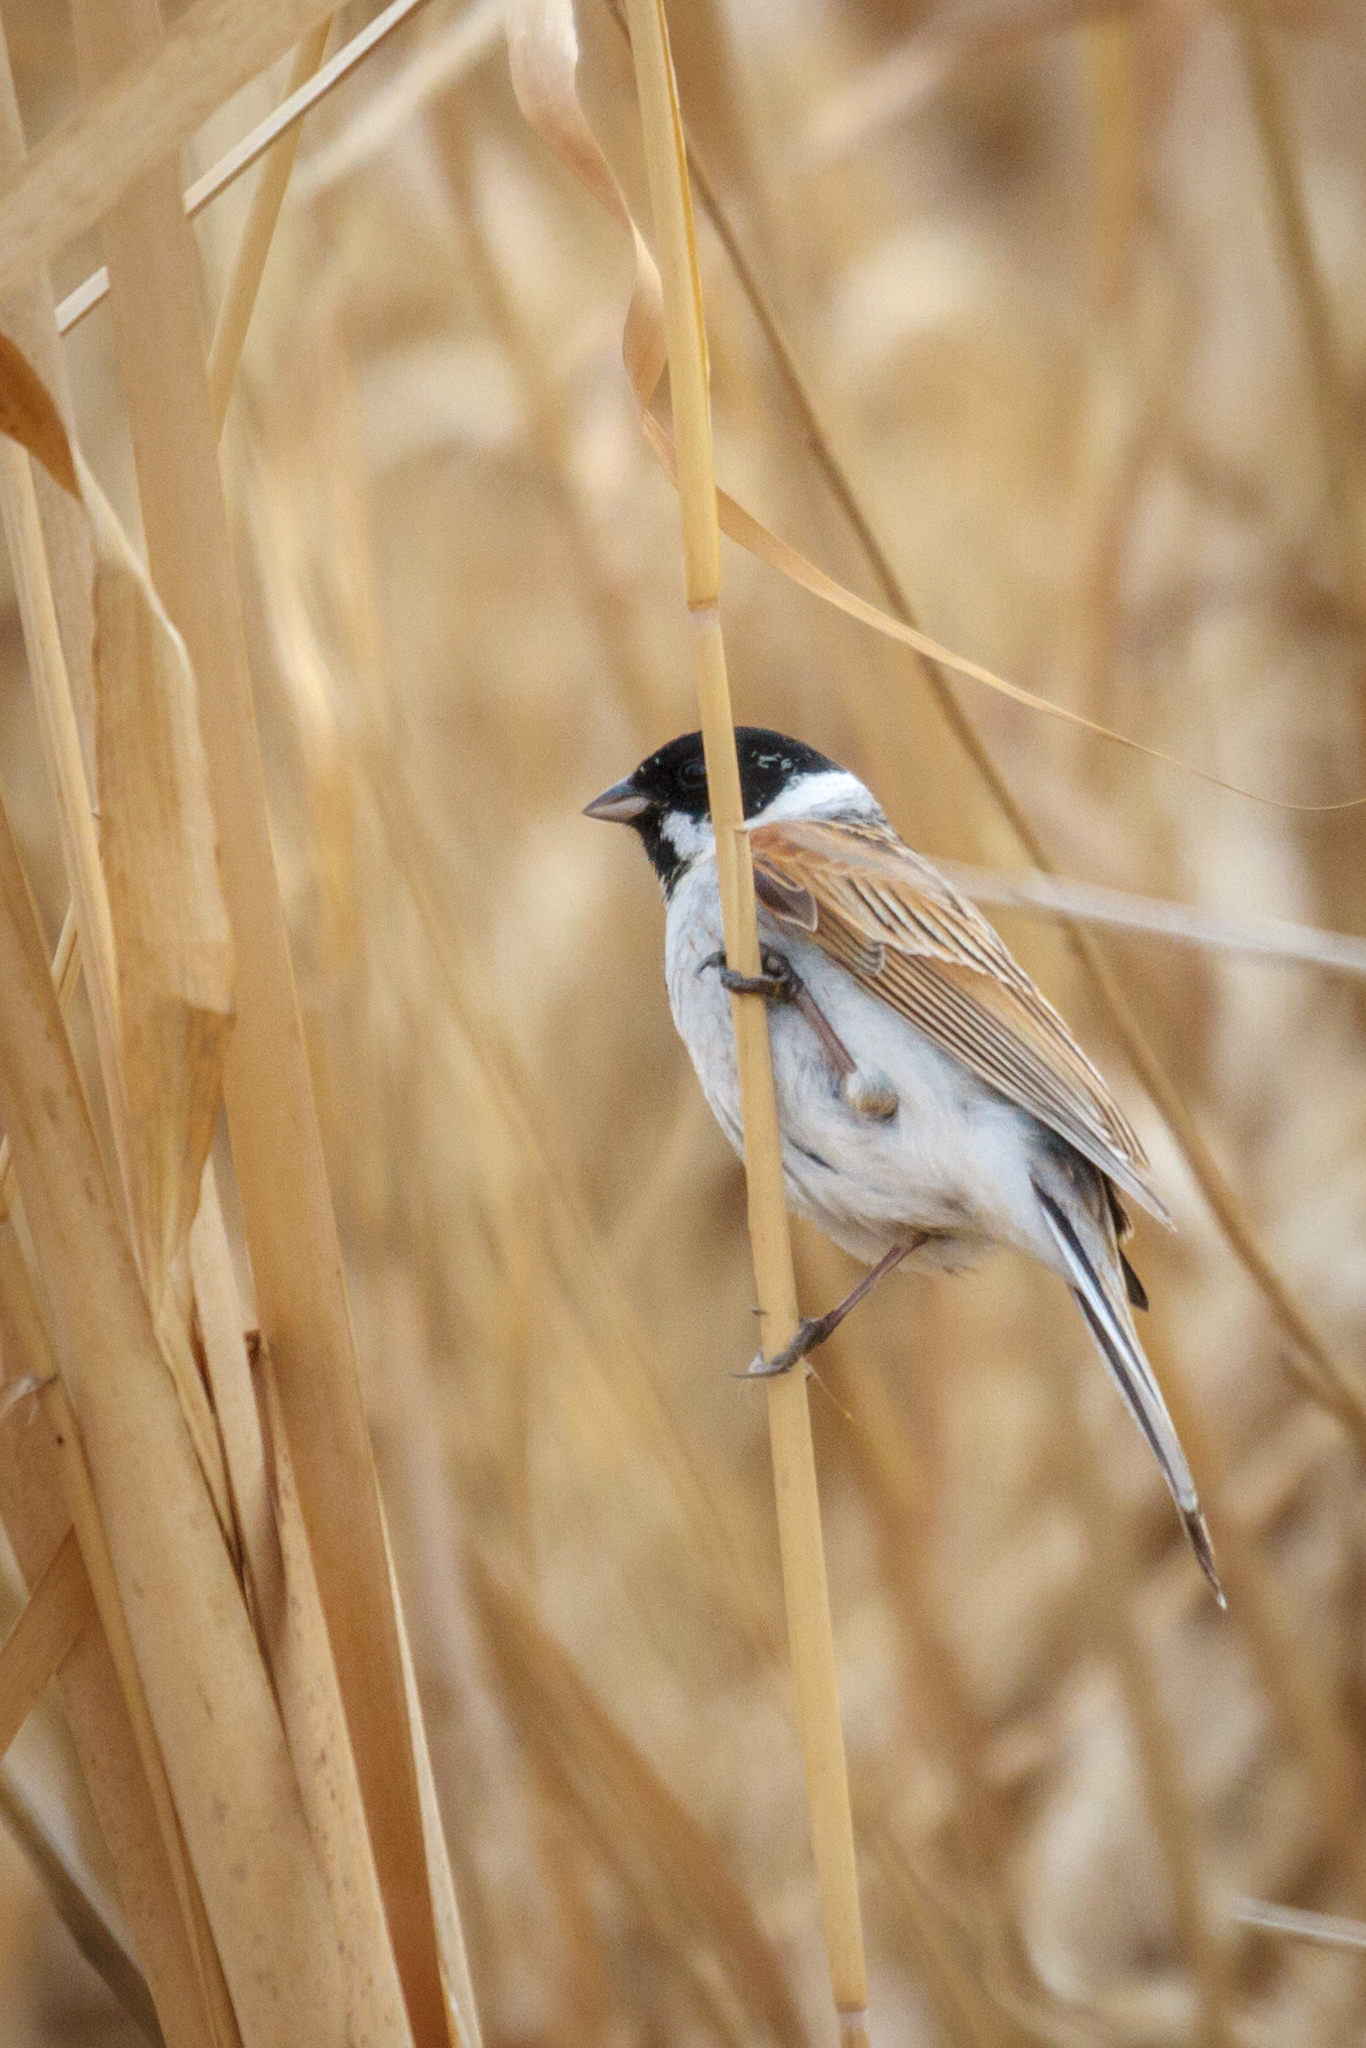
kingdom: Animalia
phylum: Chordata
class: Aves
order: Passeriformes
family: Emberizidae
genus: Emberiza
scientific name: Emberiza schoeniclus
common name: Reed bunting
